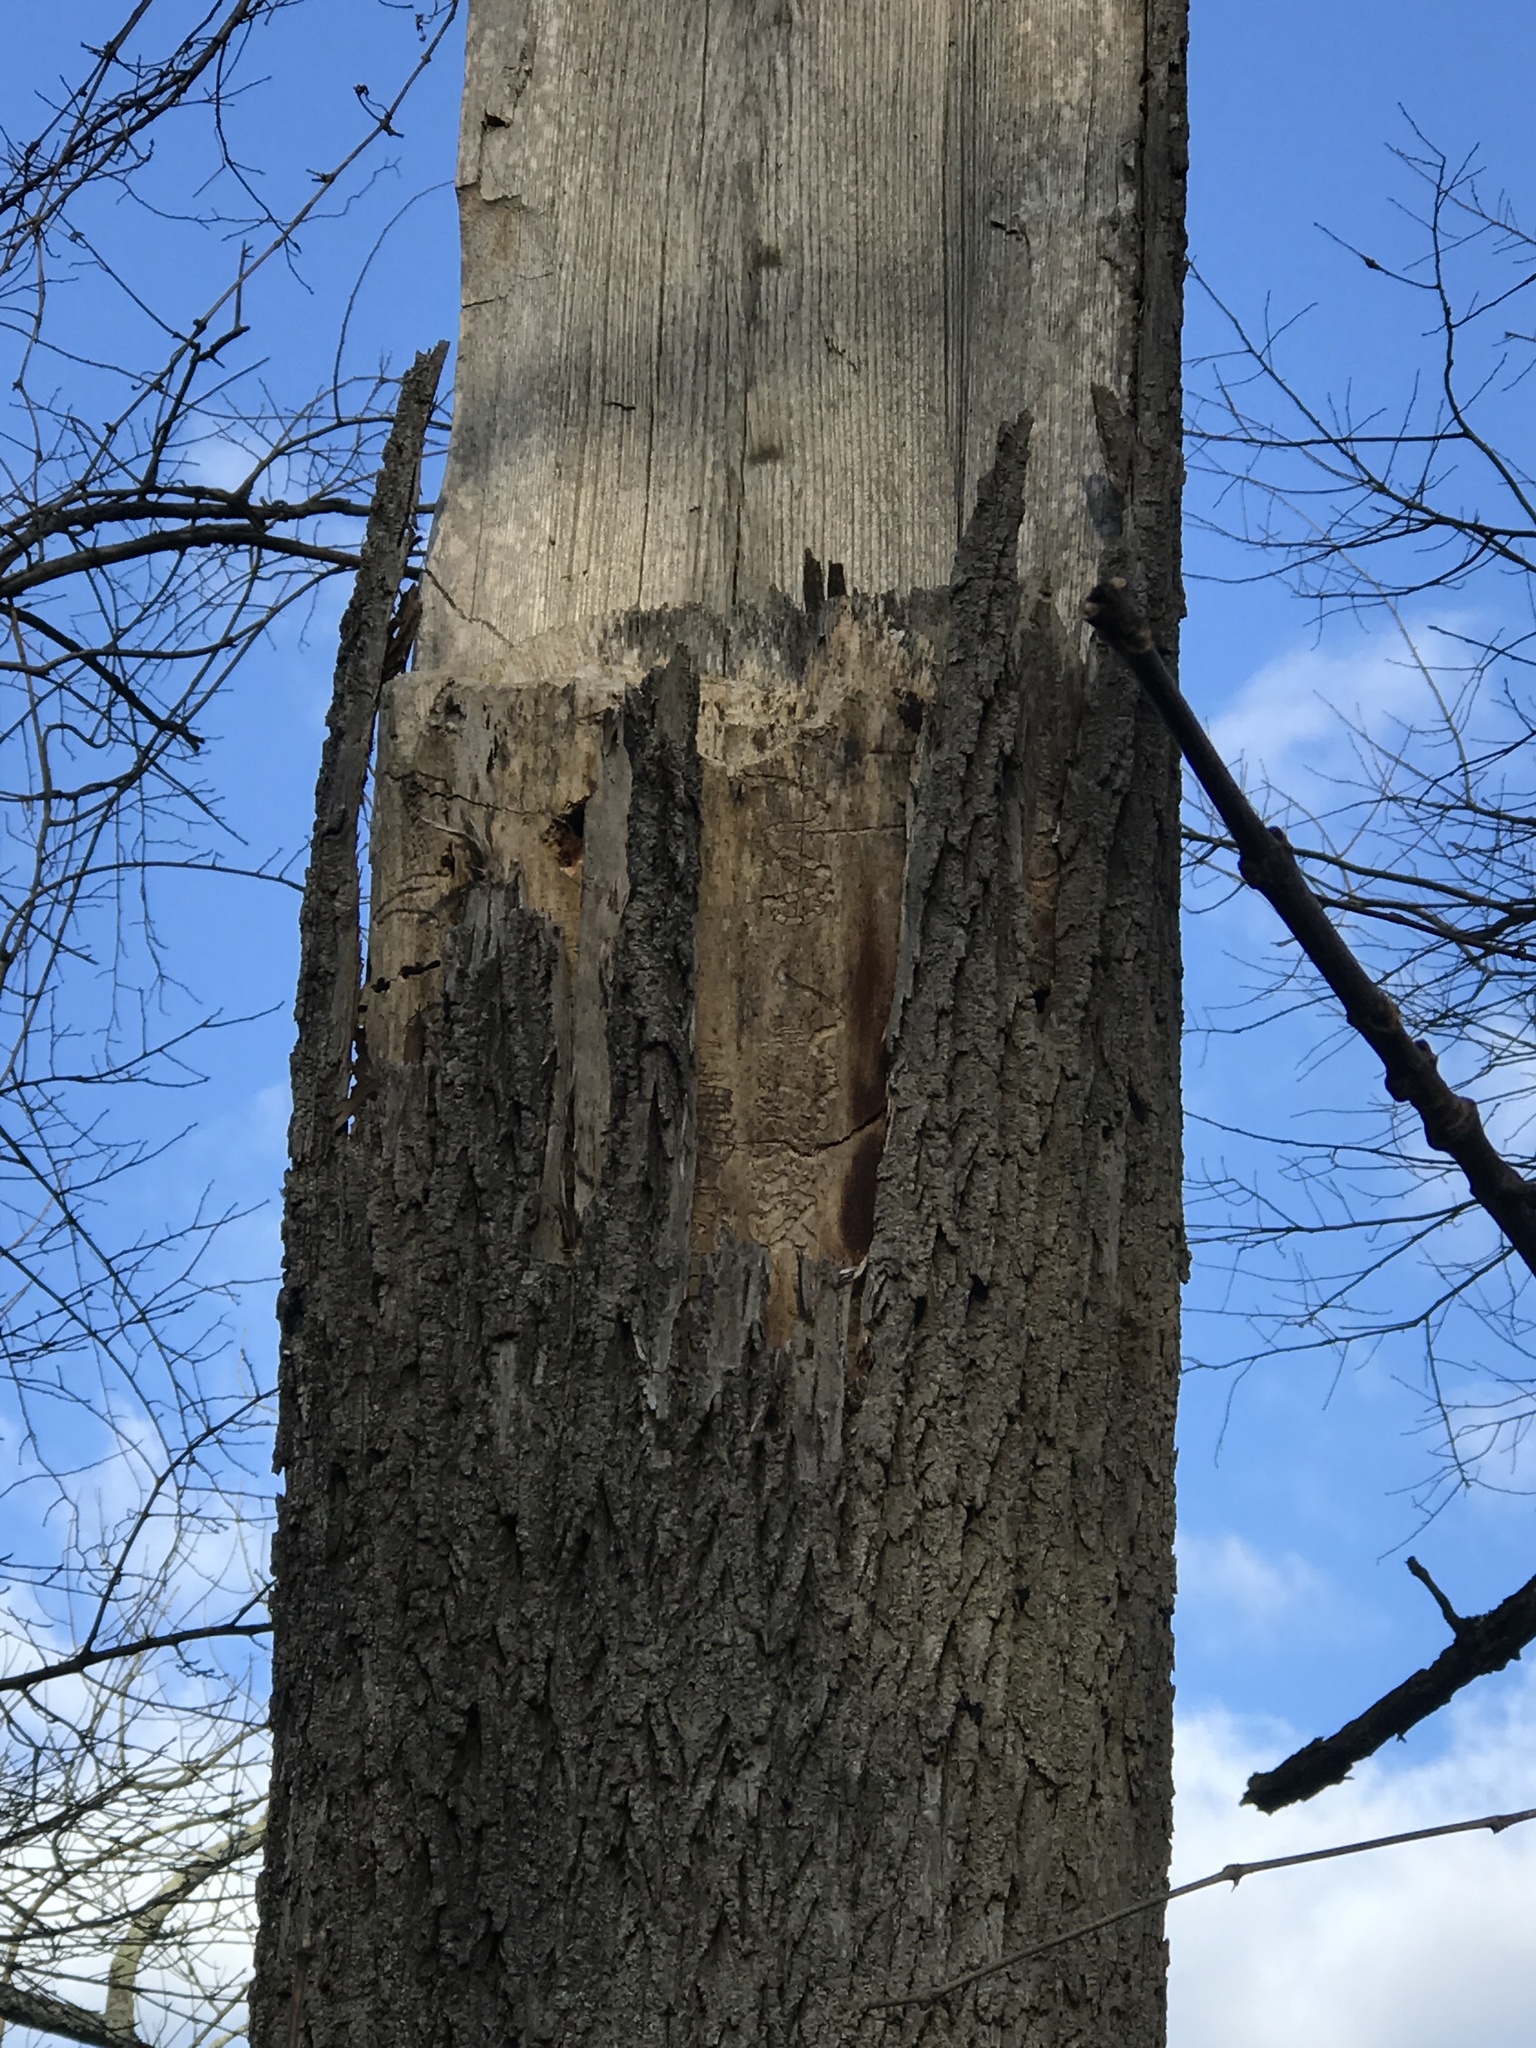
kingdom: Animalia
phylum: Arthropoda
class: Insecta
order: Coleoptera
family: Buprestidae
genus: Agrilus
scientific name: Agrilus planipennis
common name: Emerald ash borer
